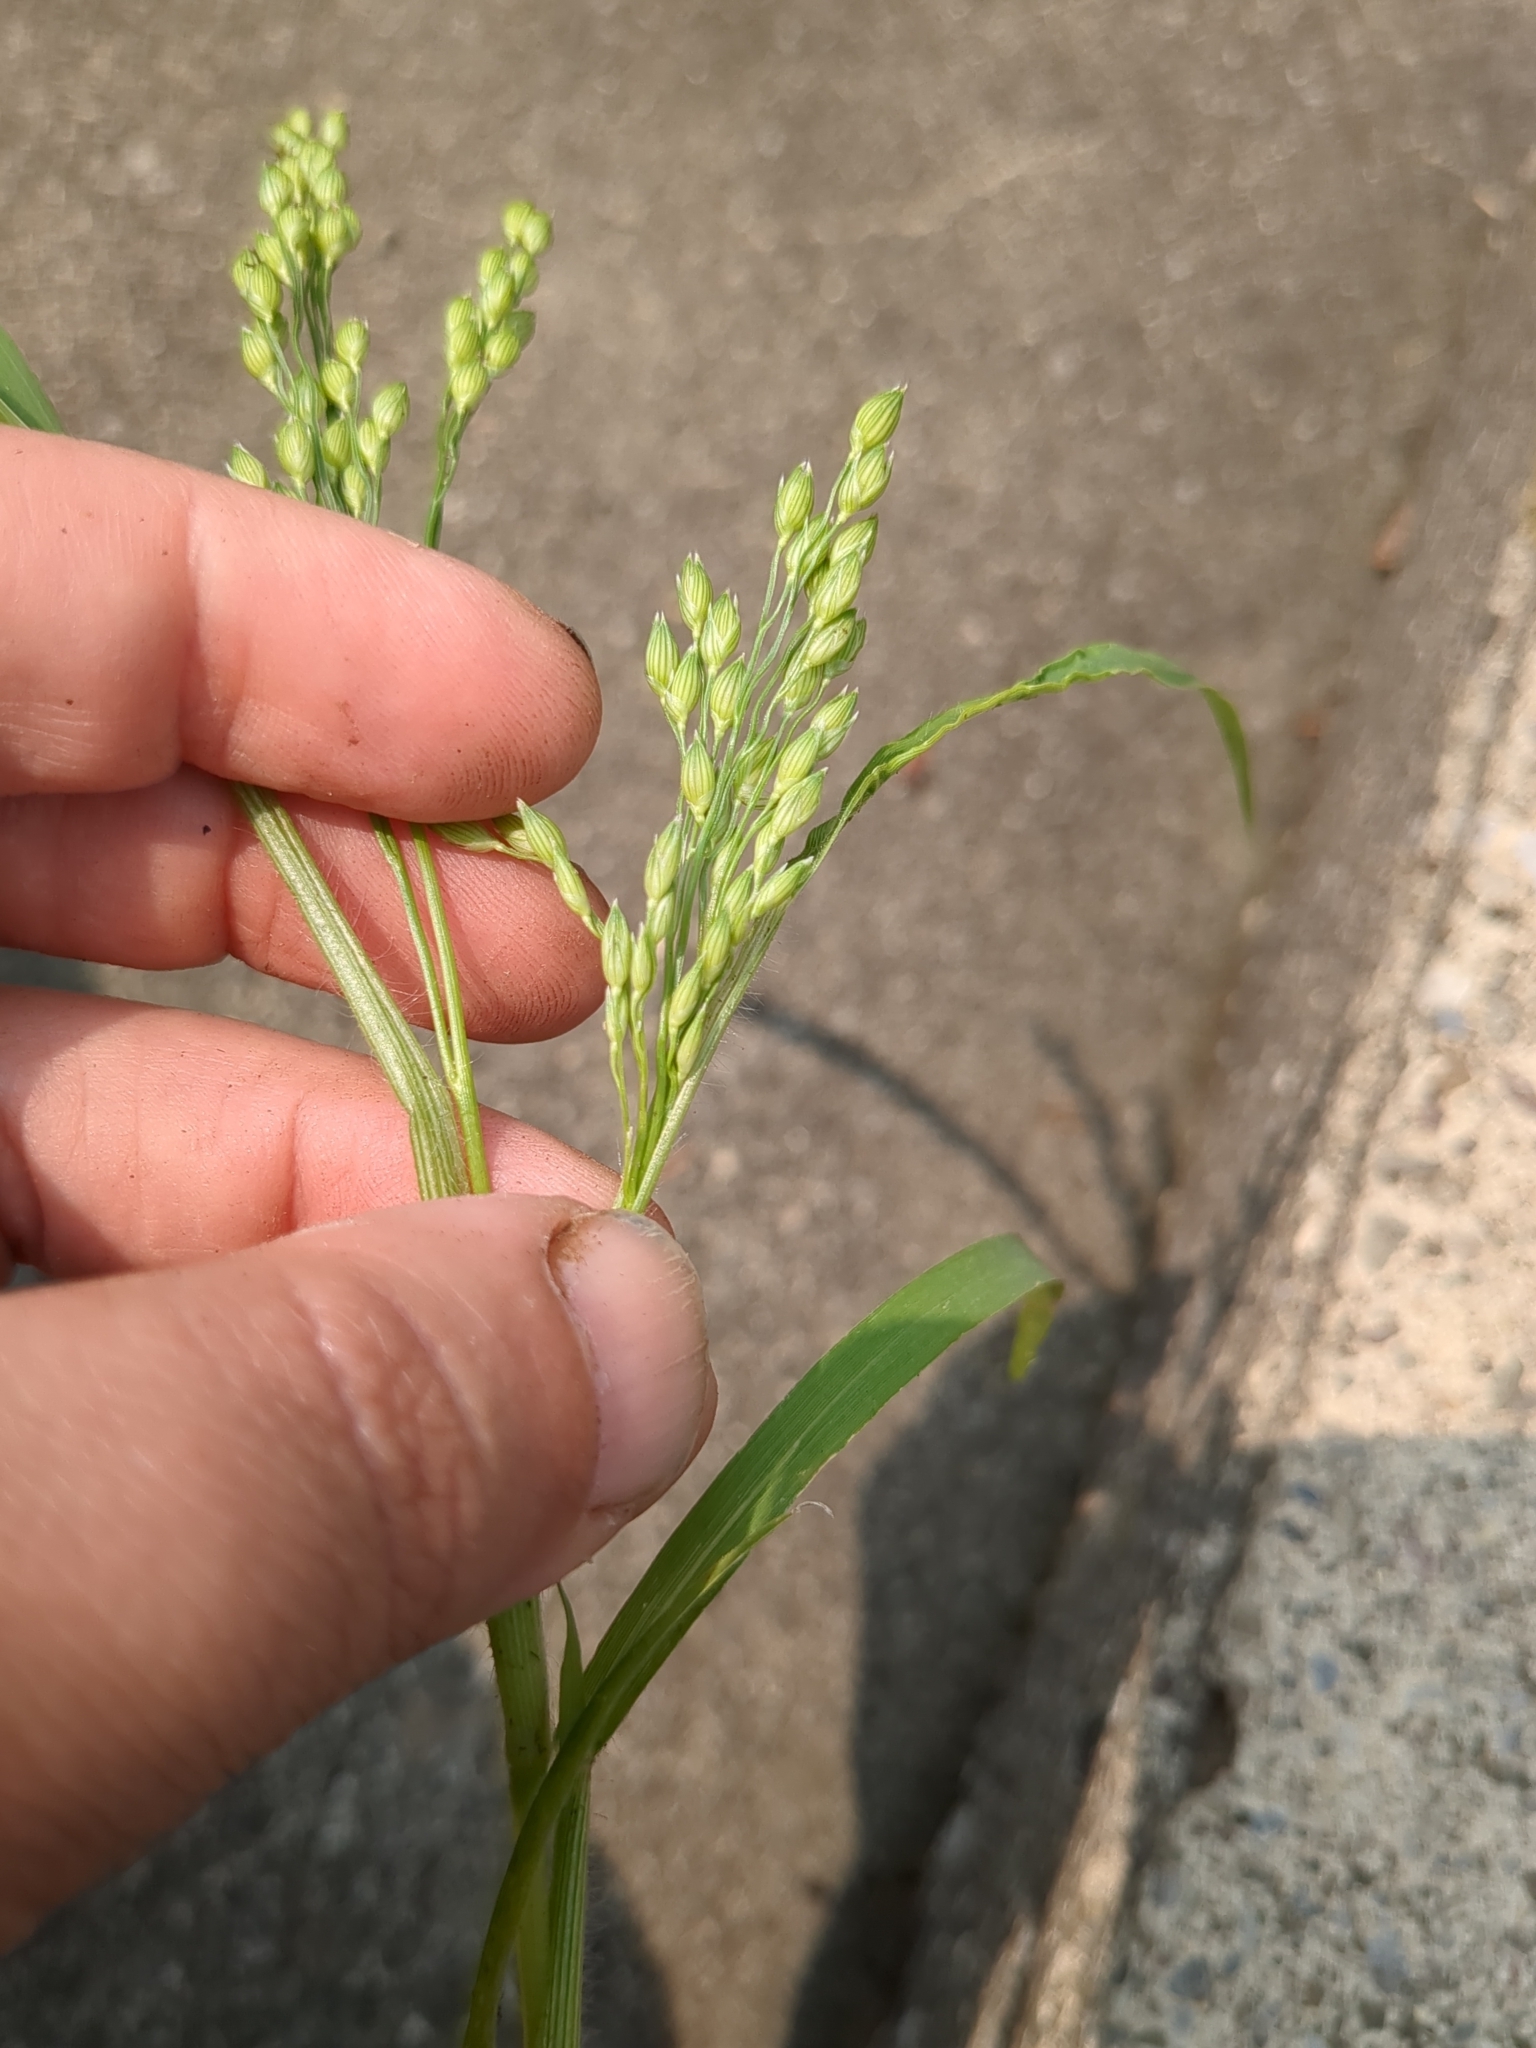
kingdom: Plantae
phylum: Tracheophyta
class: Liliopsida
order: Poales
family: Poaceae
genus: Panicum
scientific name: Panicum miliaceum
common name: Common millet
